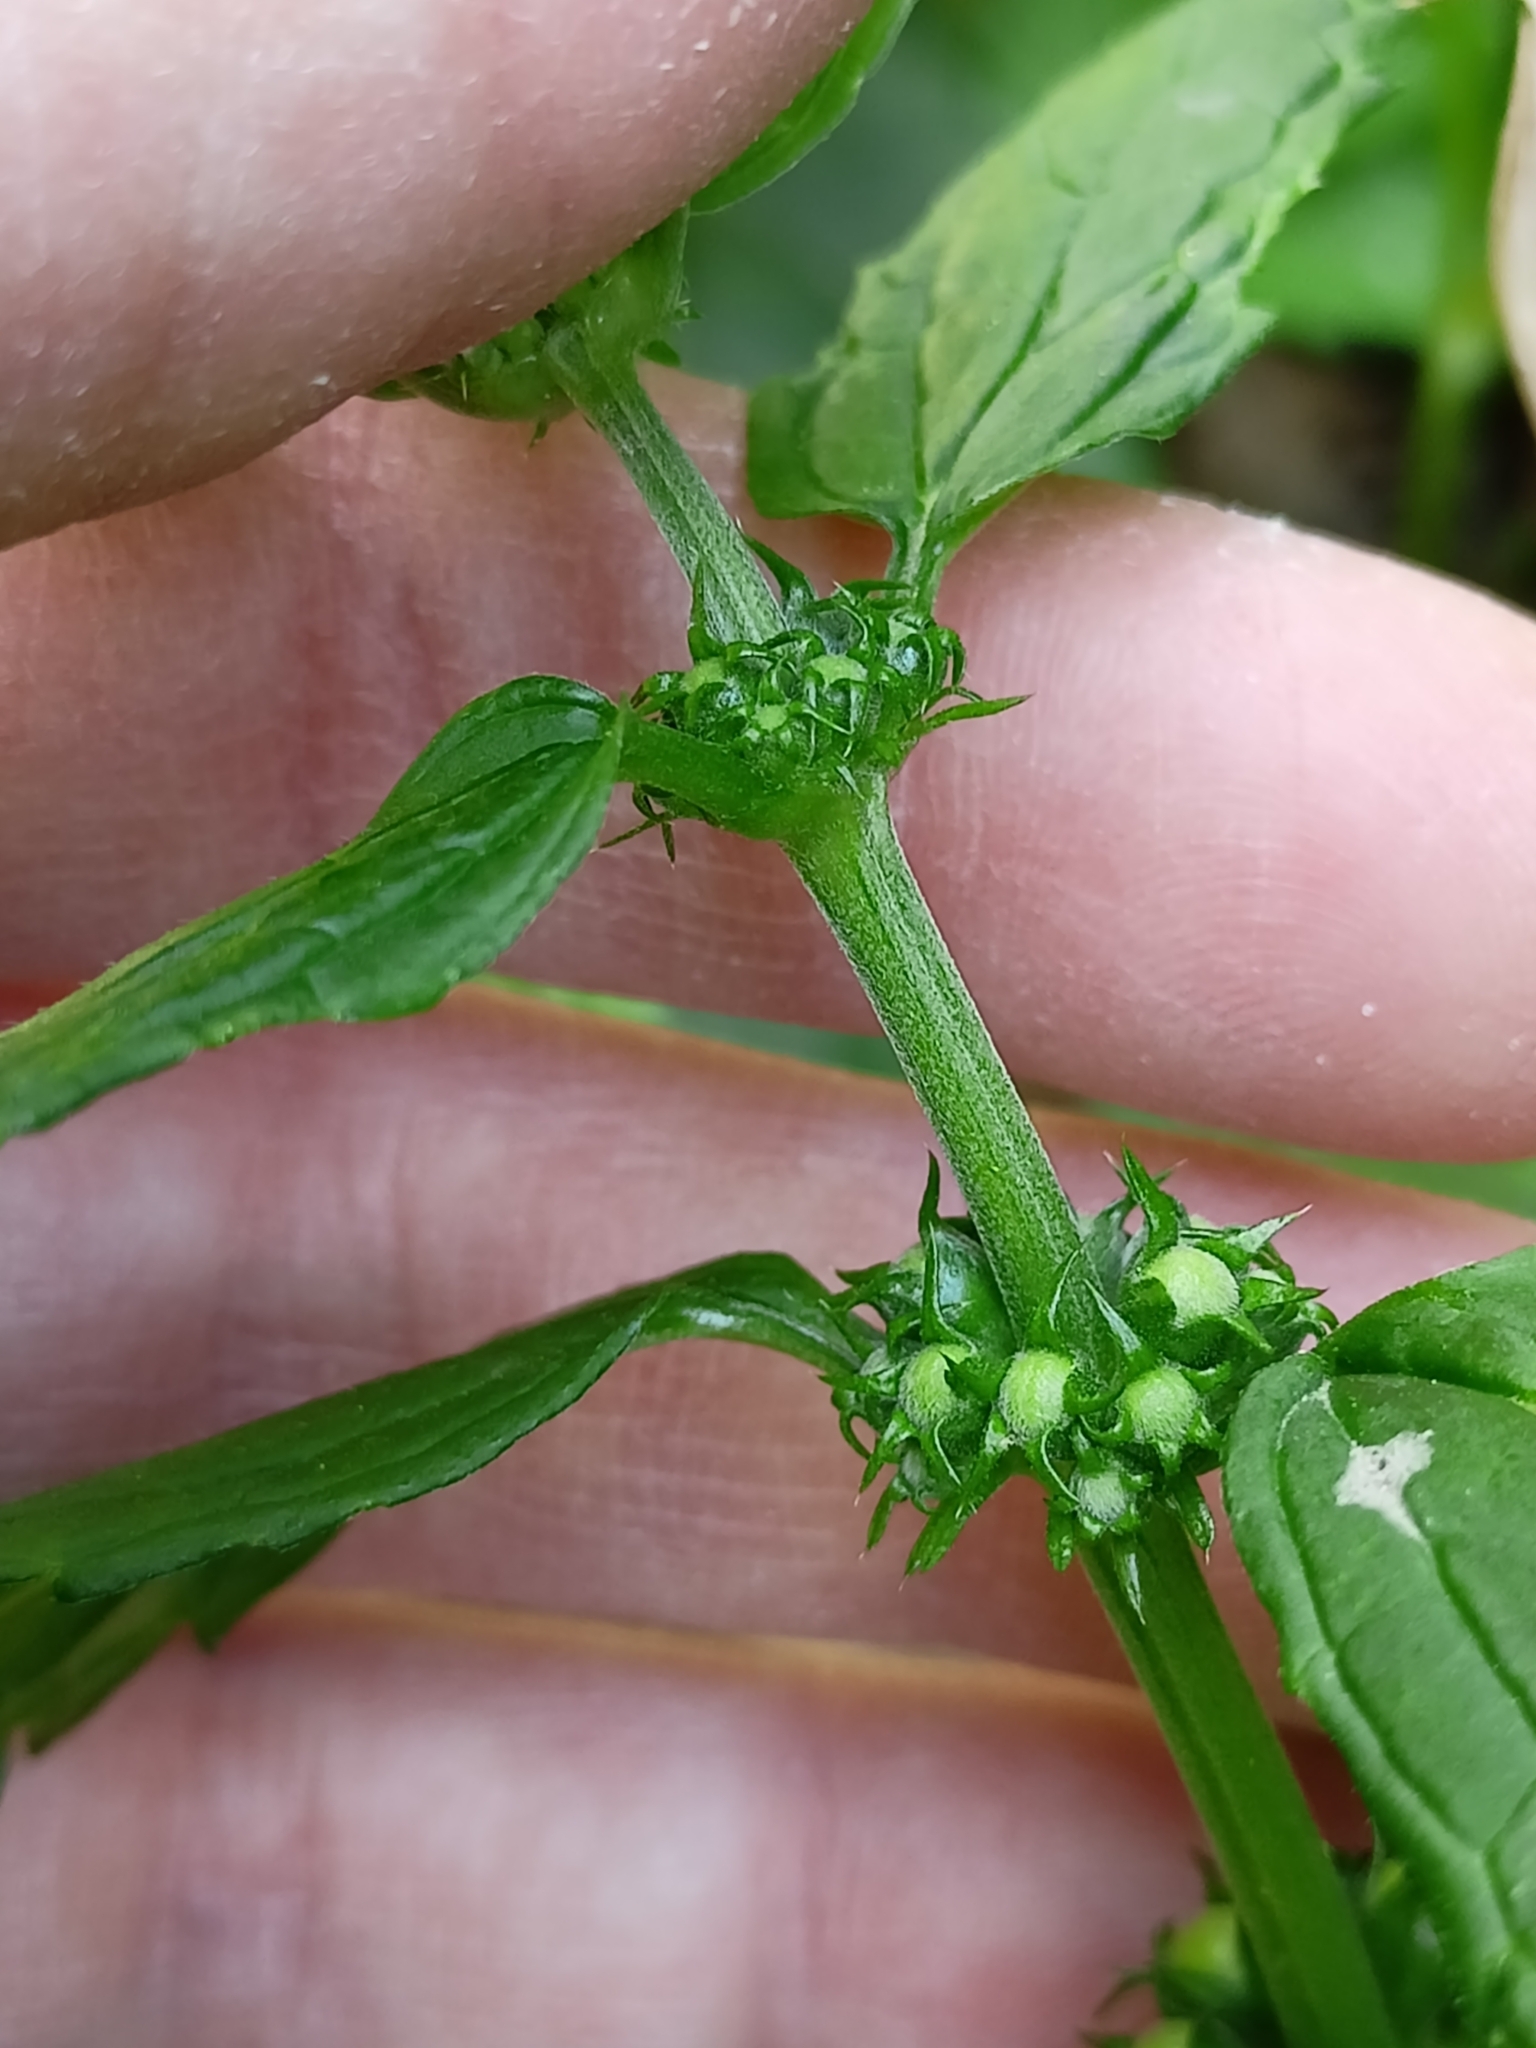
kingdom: Plantae
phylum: Tracheophyta
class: Magnoliopsida
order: Lamiales
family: Lamiaceae
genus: Lamium
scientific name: Lamium galeobdolon
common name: Yellow archangel
